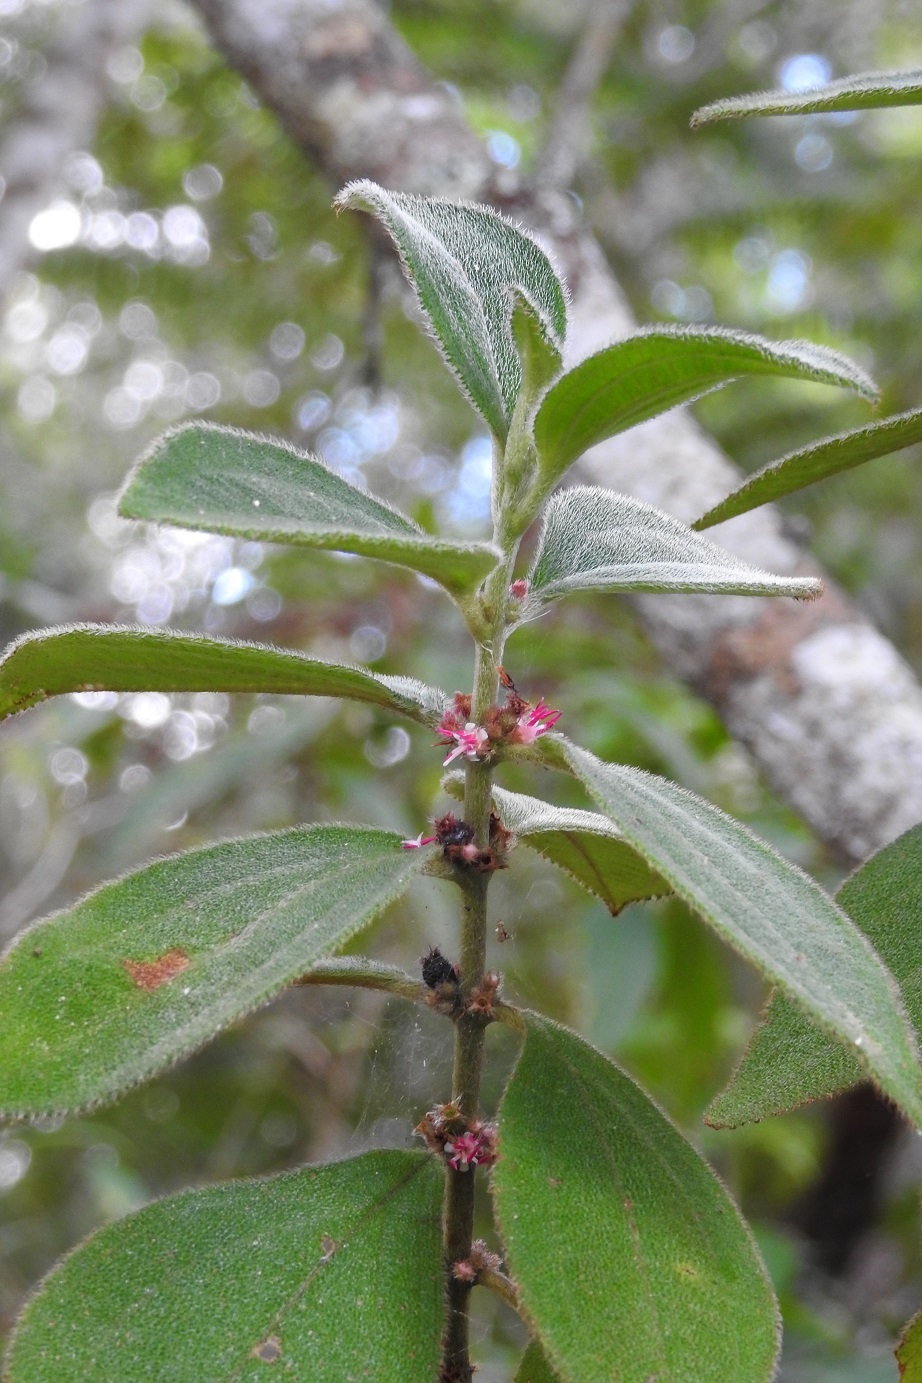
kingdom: Plantae
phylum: Tracheophyta
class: Magnoliopsida
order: Myrtales
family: Melastomataceae
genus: Miconia
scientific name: Miconia sericea
